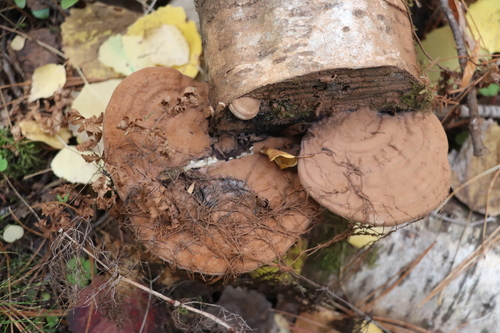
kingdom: Fungi
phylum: Basidiomycota
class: Agaricomycetes
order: Polyporales
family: Polyporaceae
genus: Ganoderma
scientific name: Ganoderma applanatum
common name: Artist's bracket
